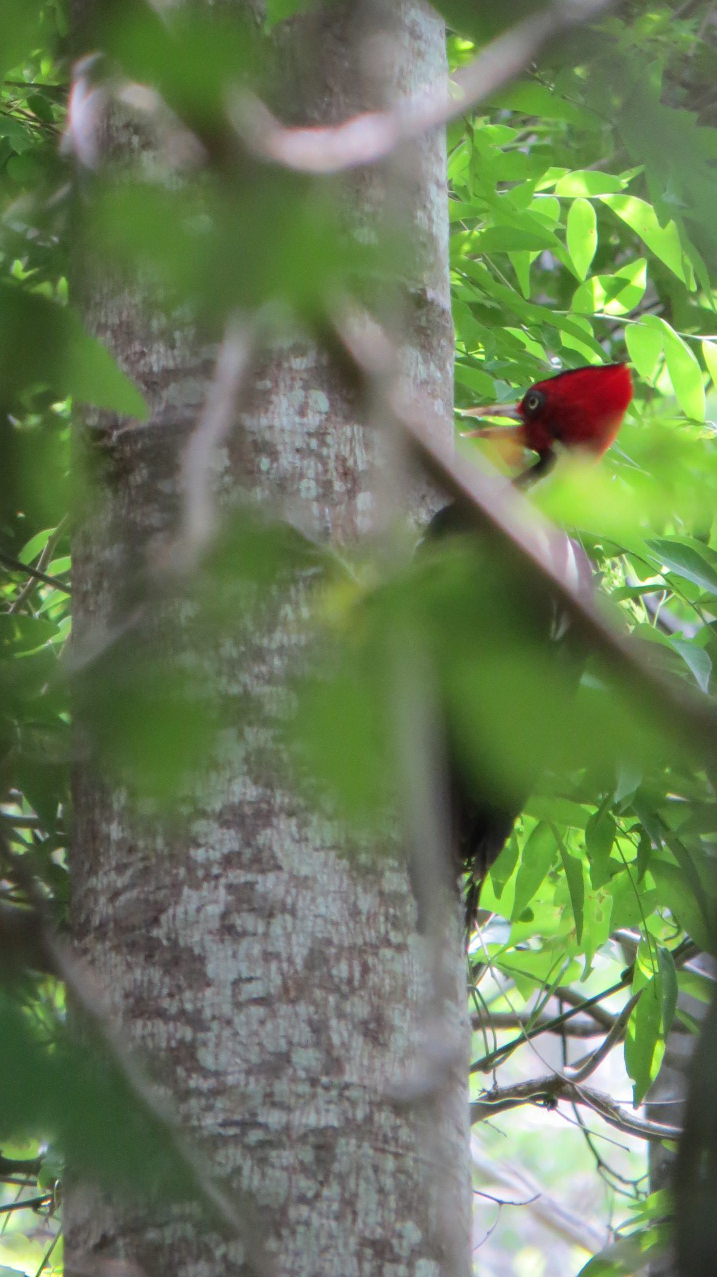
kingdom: Animalia
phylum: Chordata
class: Aves
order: Piciformes
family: Picidae
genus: Campephilus
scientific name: Campephilus guatemalensis
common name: Pale-billed woodpecker
